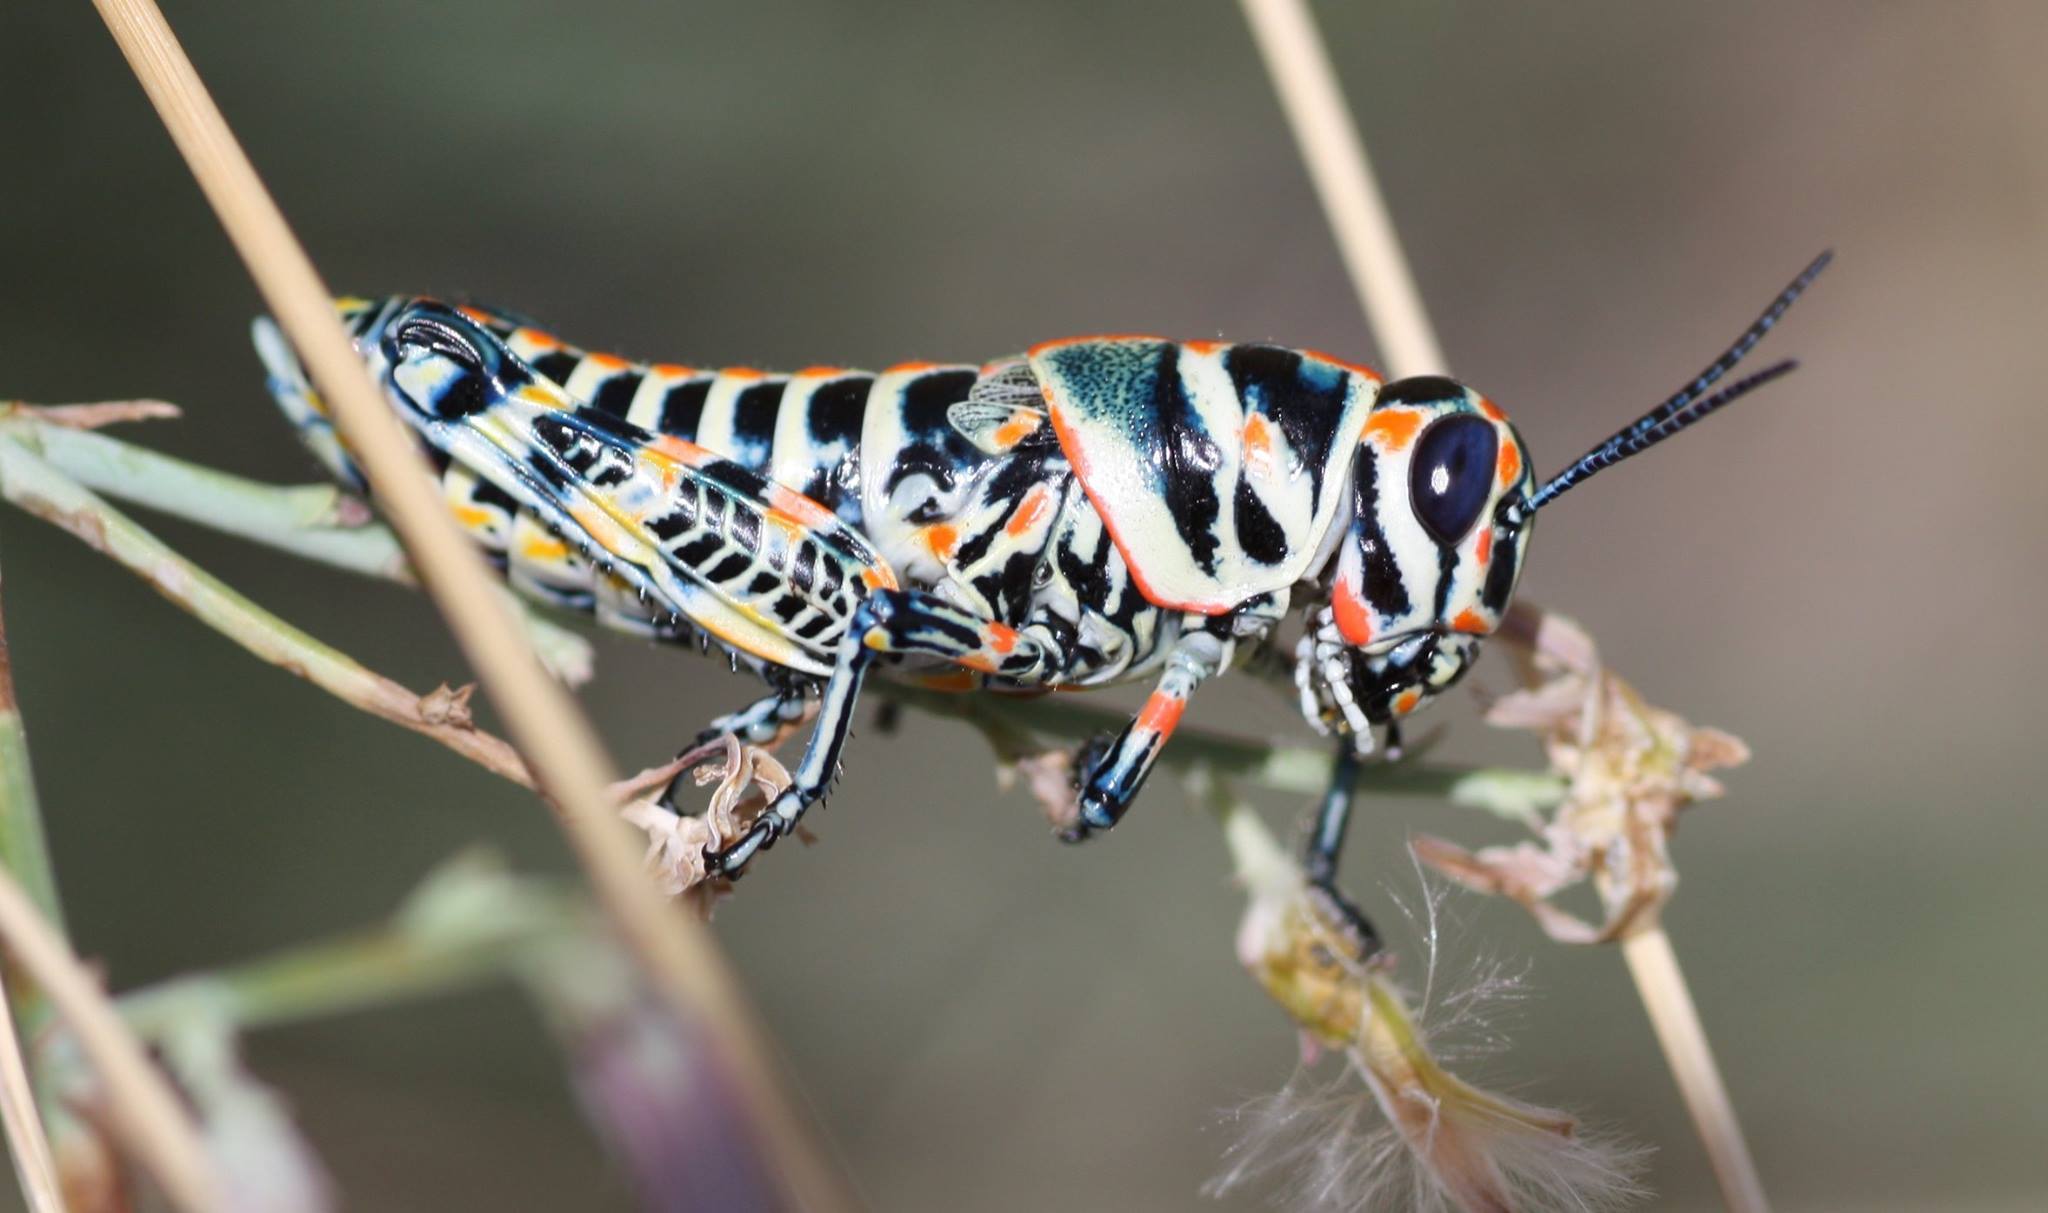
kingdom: Animalia
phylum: Arthropoda
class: Insecta
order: Orthoptera
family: Acrididae
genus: Dactylotum
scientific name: Dactylotum bicolor
